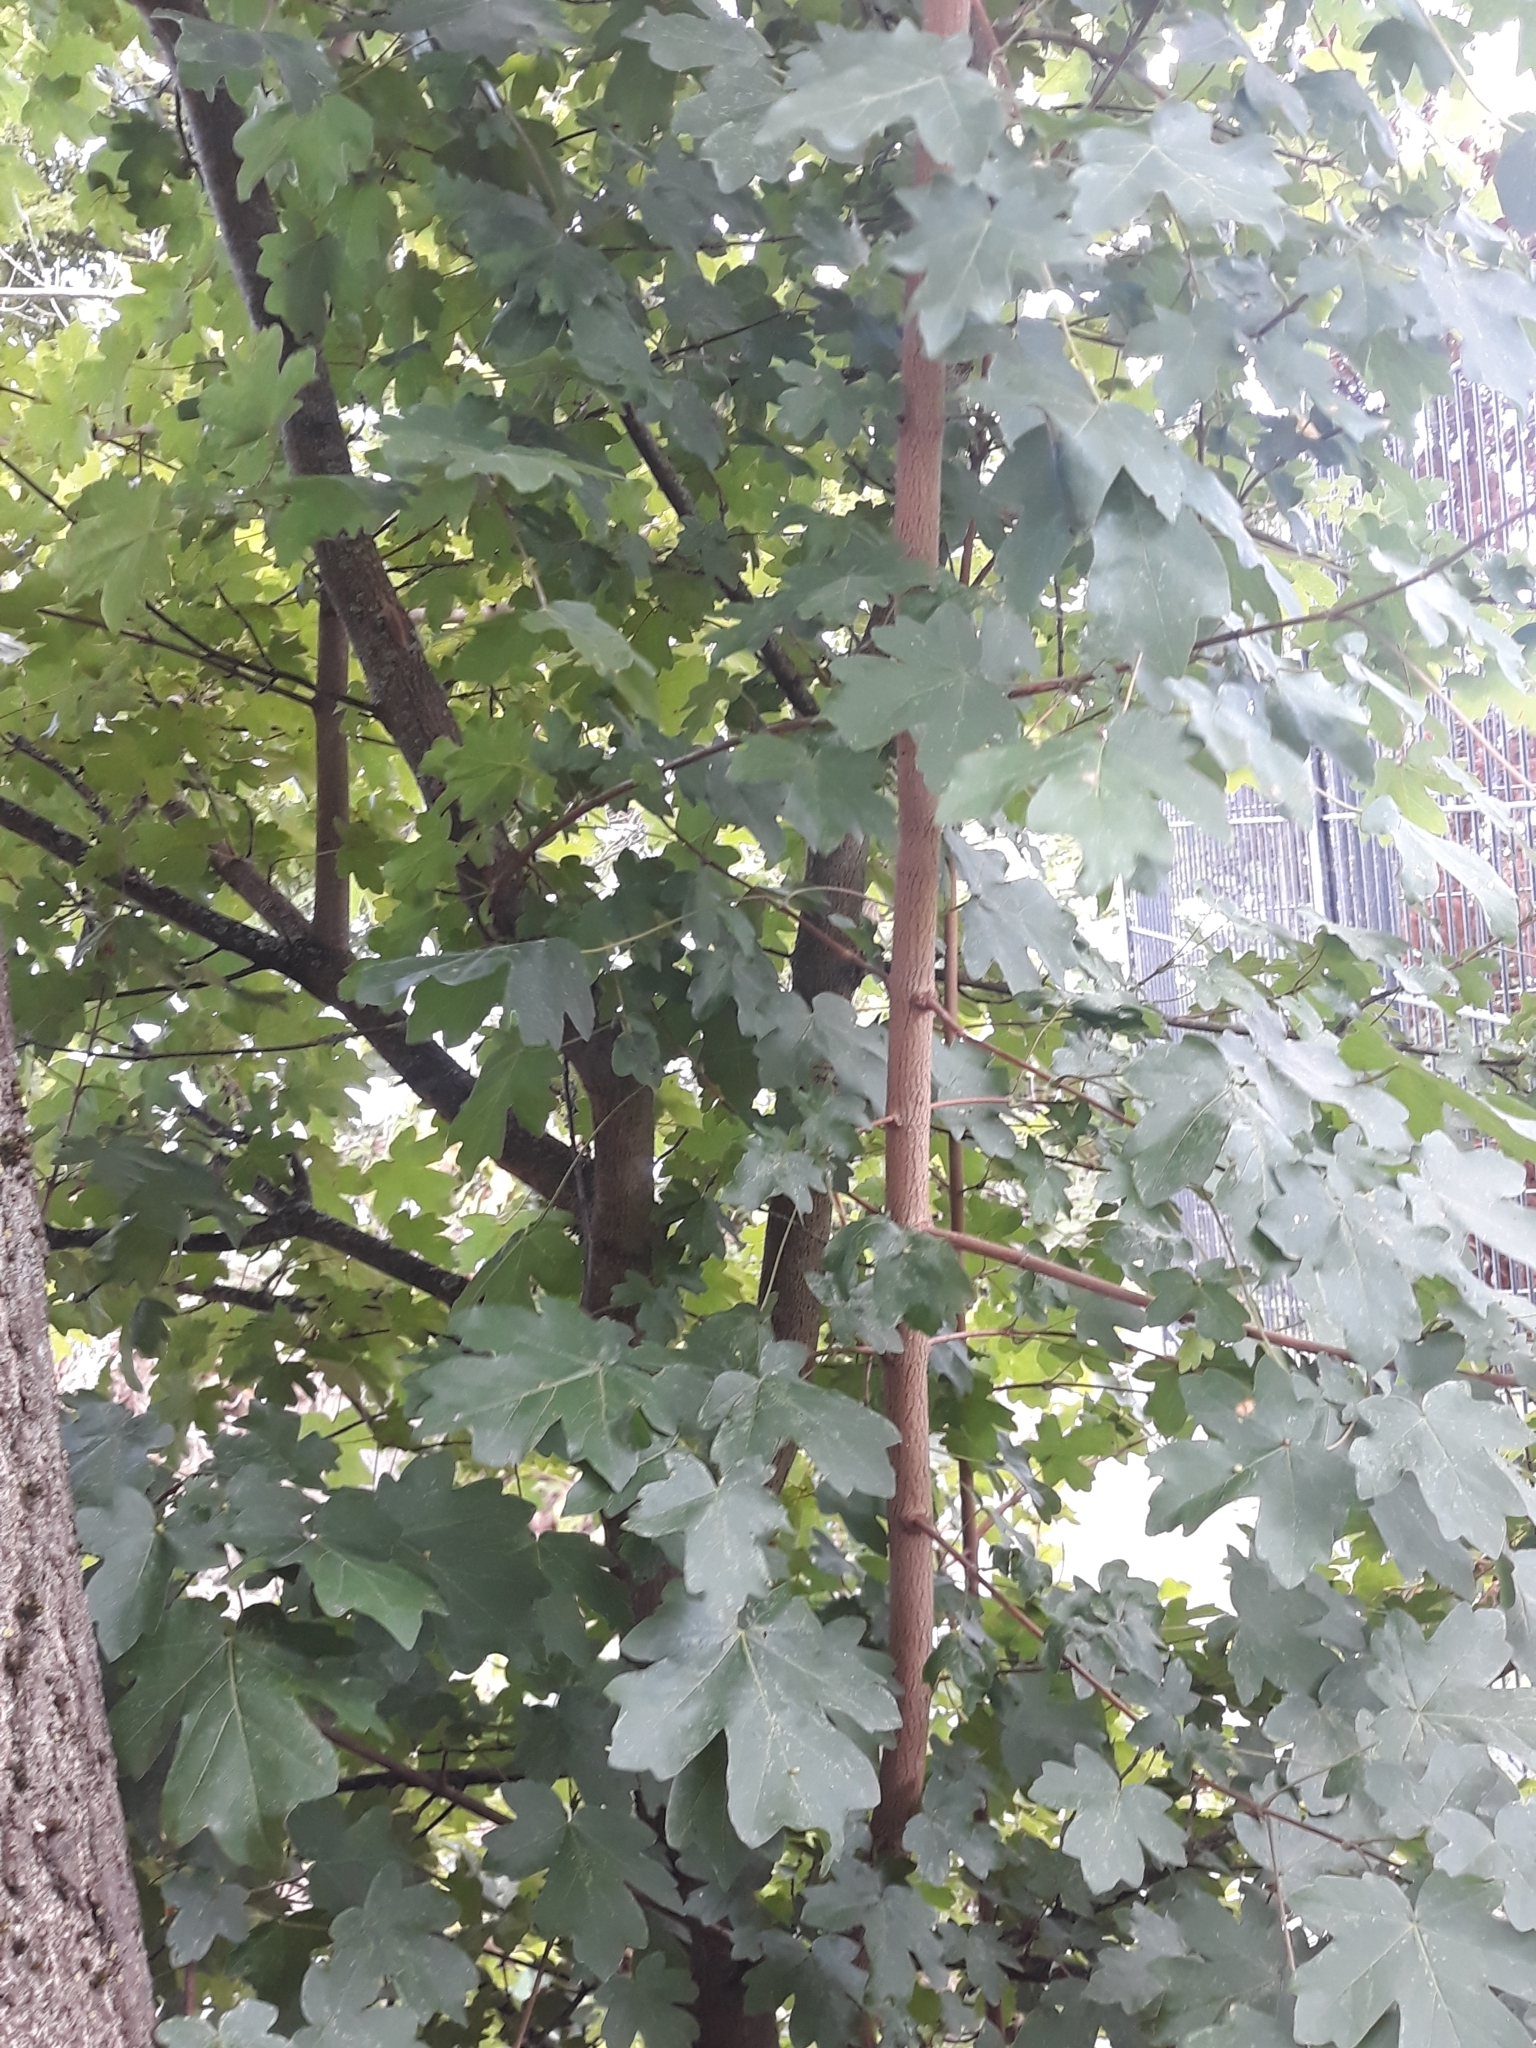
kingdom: Plantae
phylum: Tracheophyta
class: Magnoliopsida
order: Sapindales
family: Sapindaceae
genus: Acer
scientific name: Acer campestre
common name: Field maple
